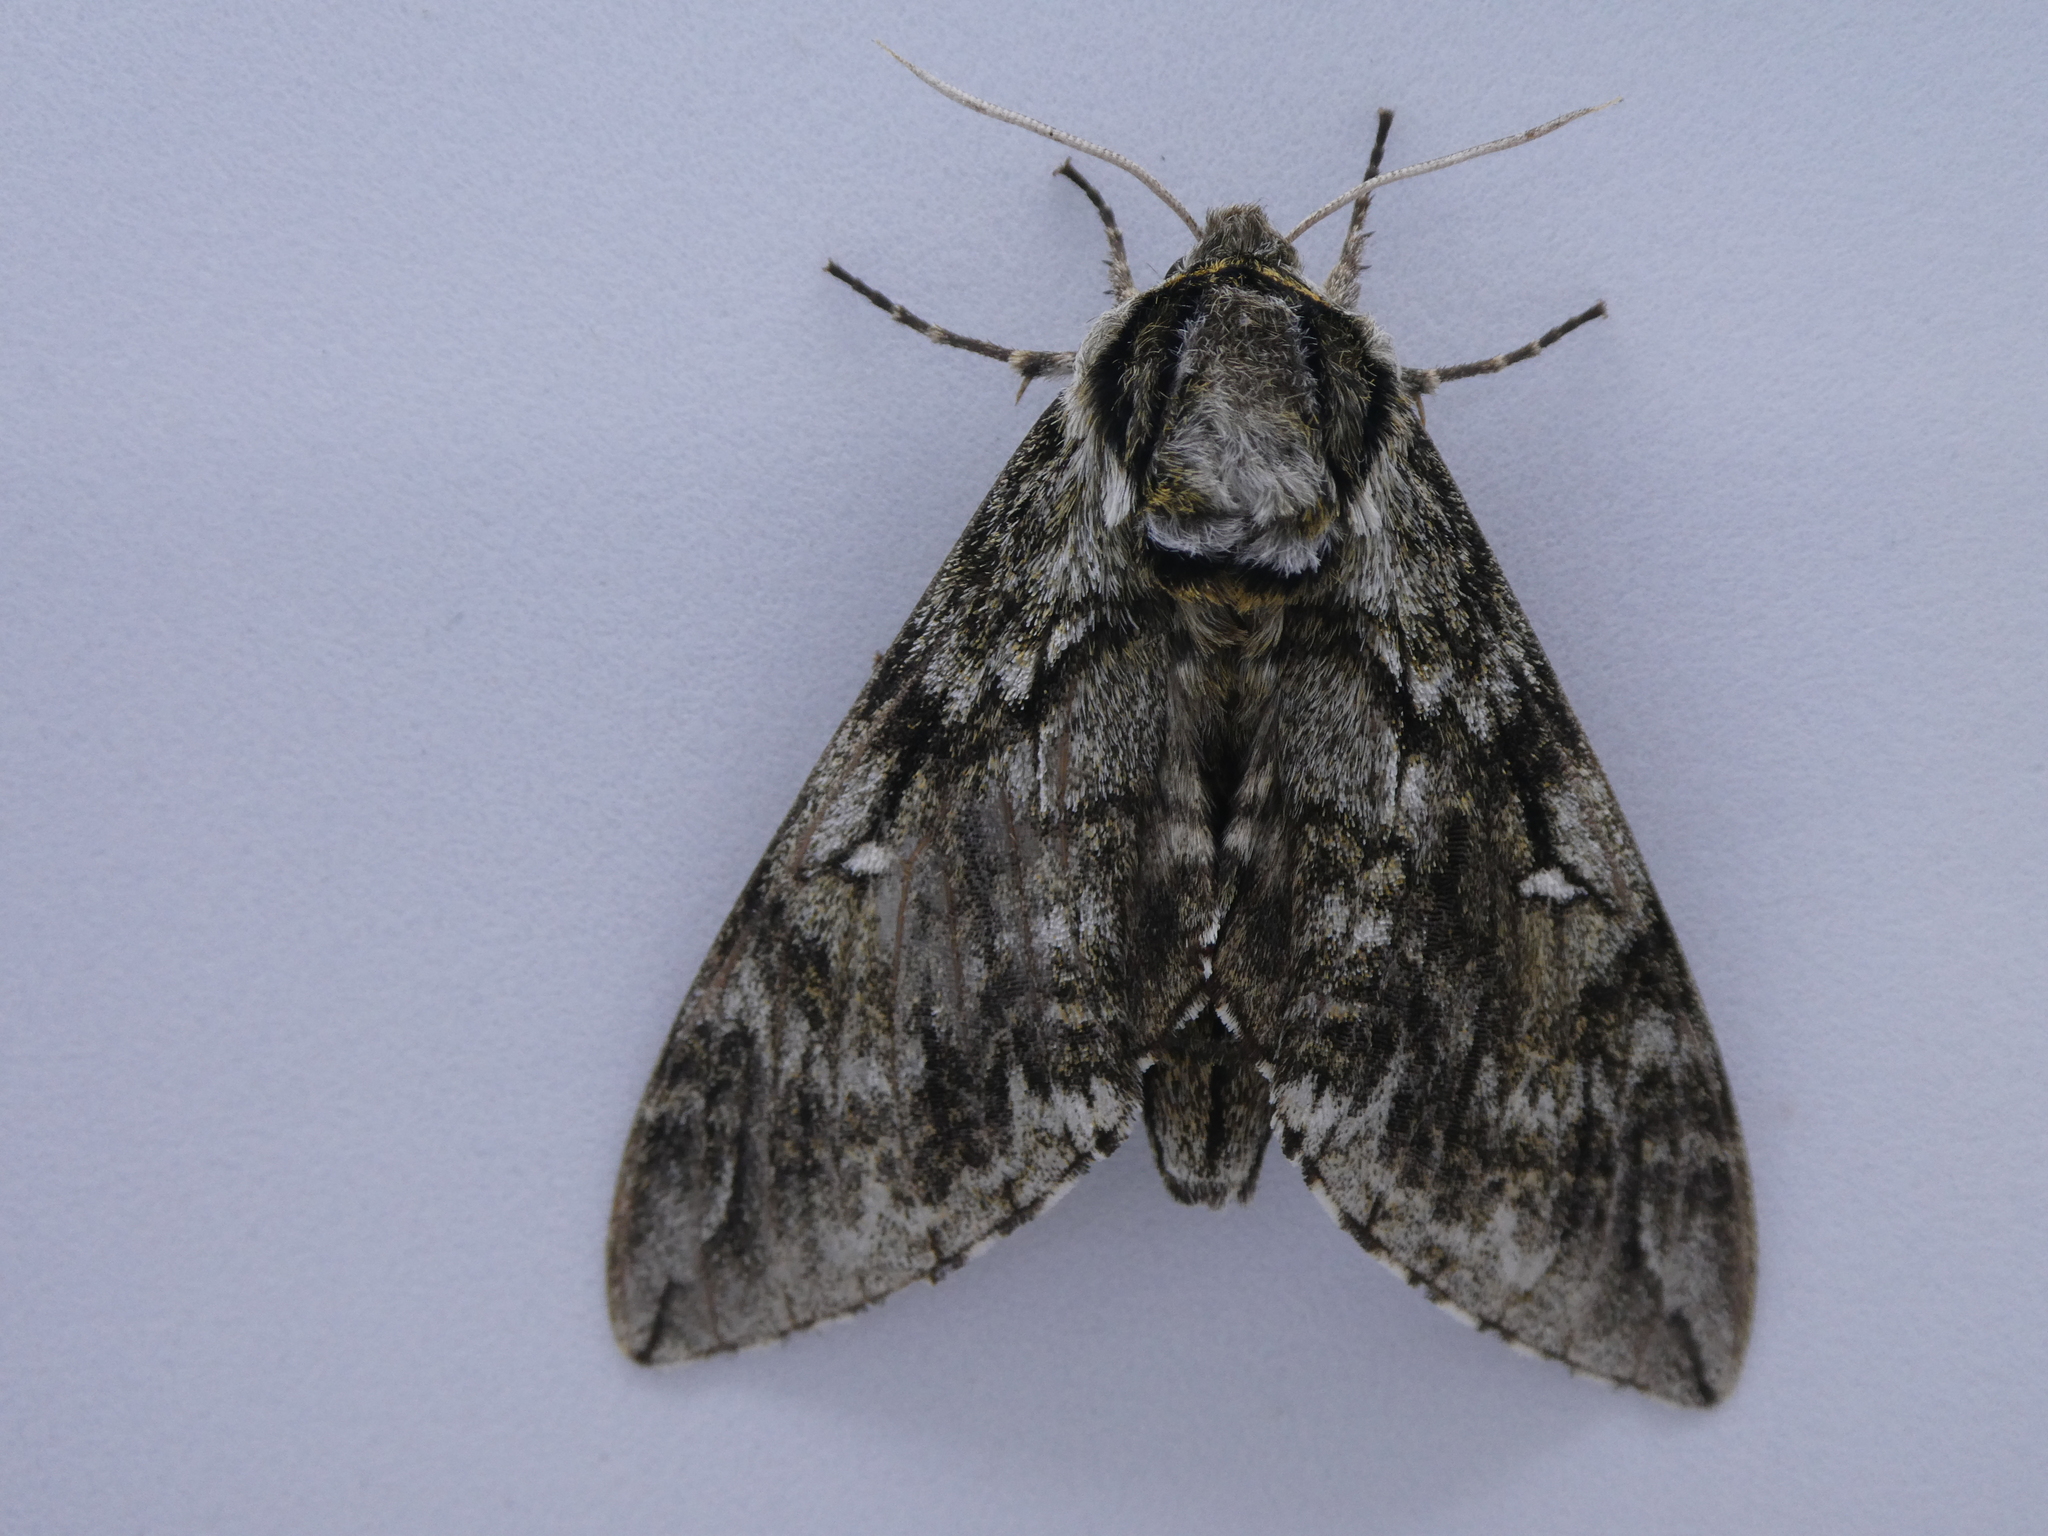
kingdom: Animalia
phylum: Arthropoda
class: Insecta
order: Lepidoptera
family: Sphingidae
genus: Ceratomia
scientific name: Ceratomia undulosa
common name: Waved sphinx
